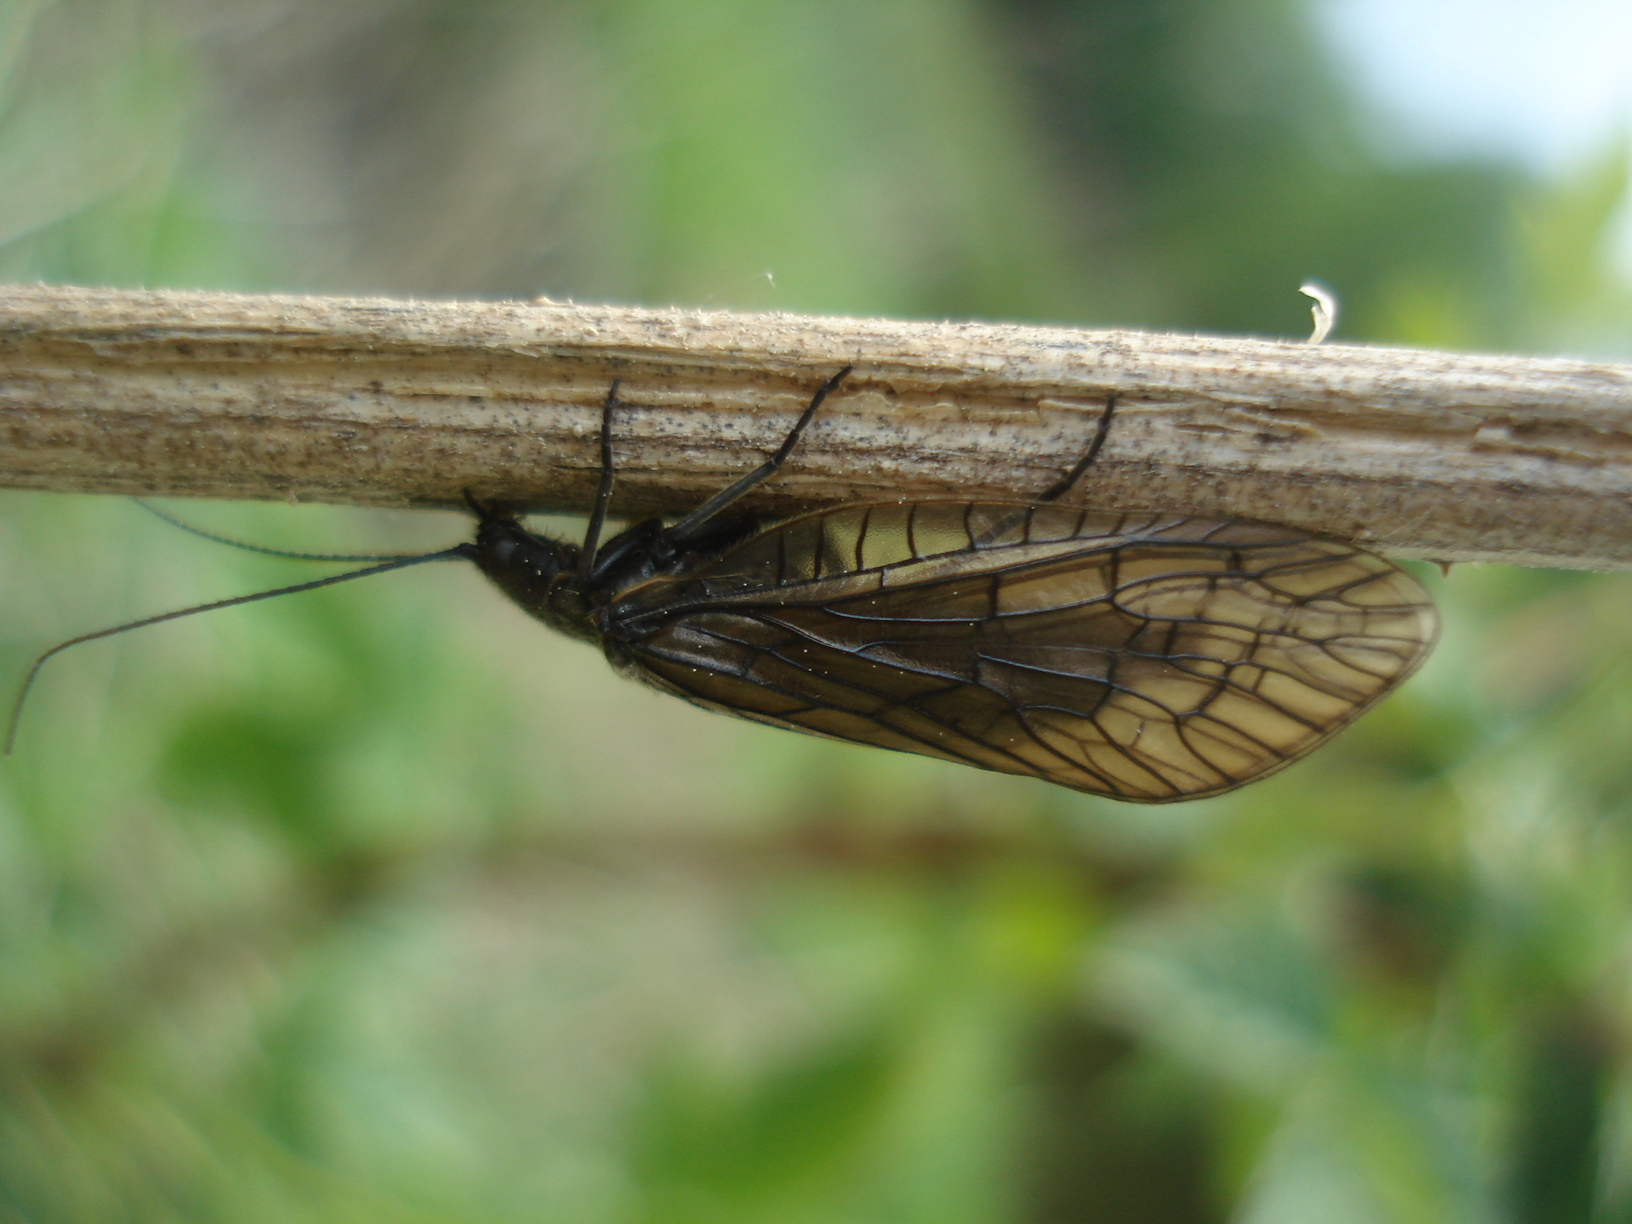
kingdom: Animalia
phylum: Arthropoda
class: Insecta
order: Megaloptera
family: Sialidae
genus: Sialis
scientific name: Sialis
